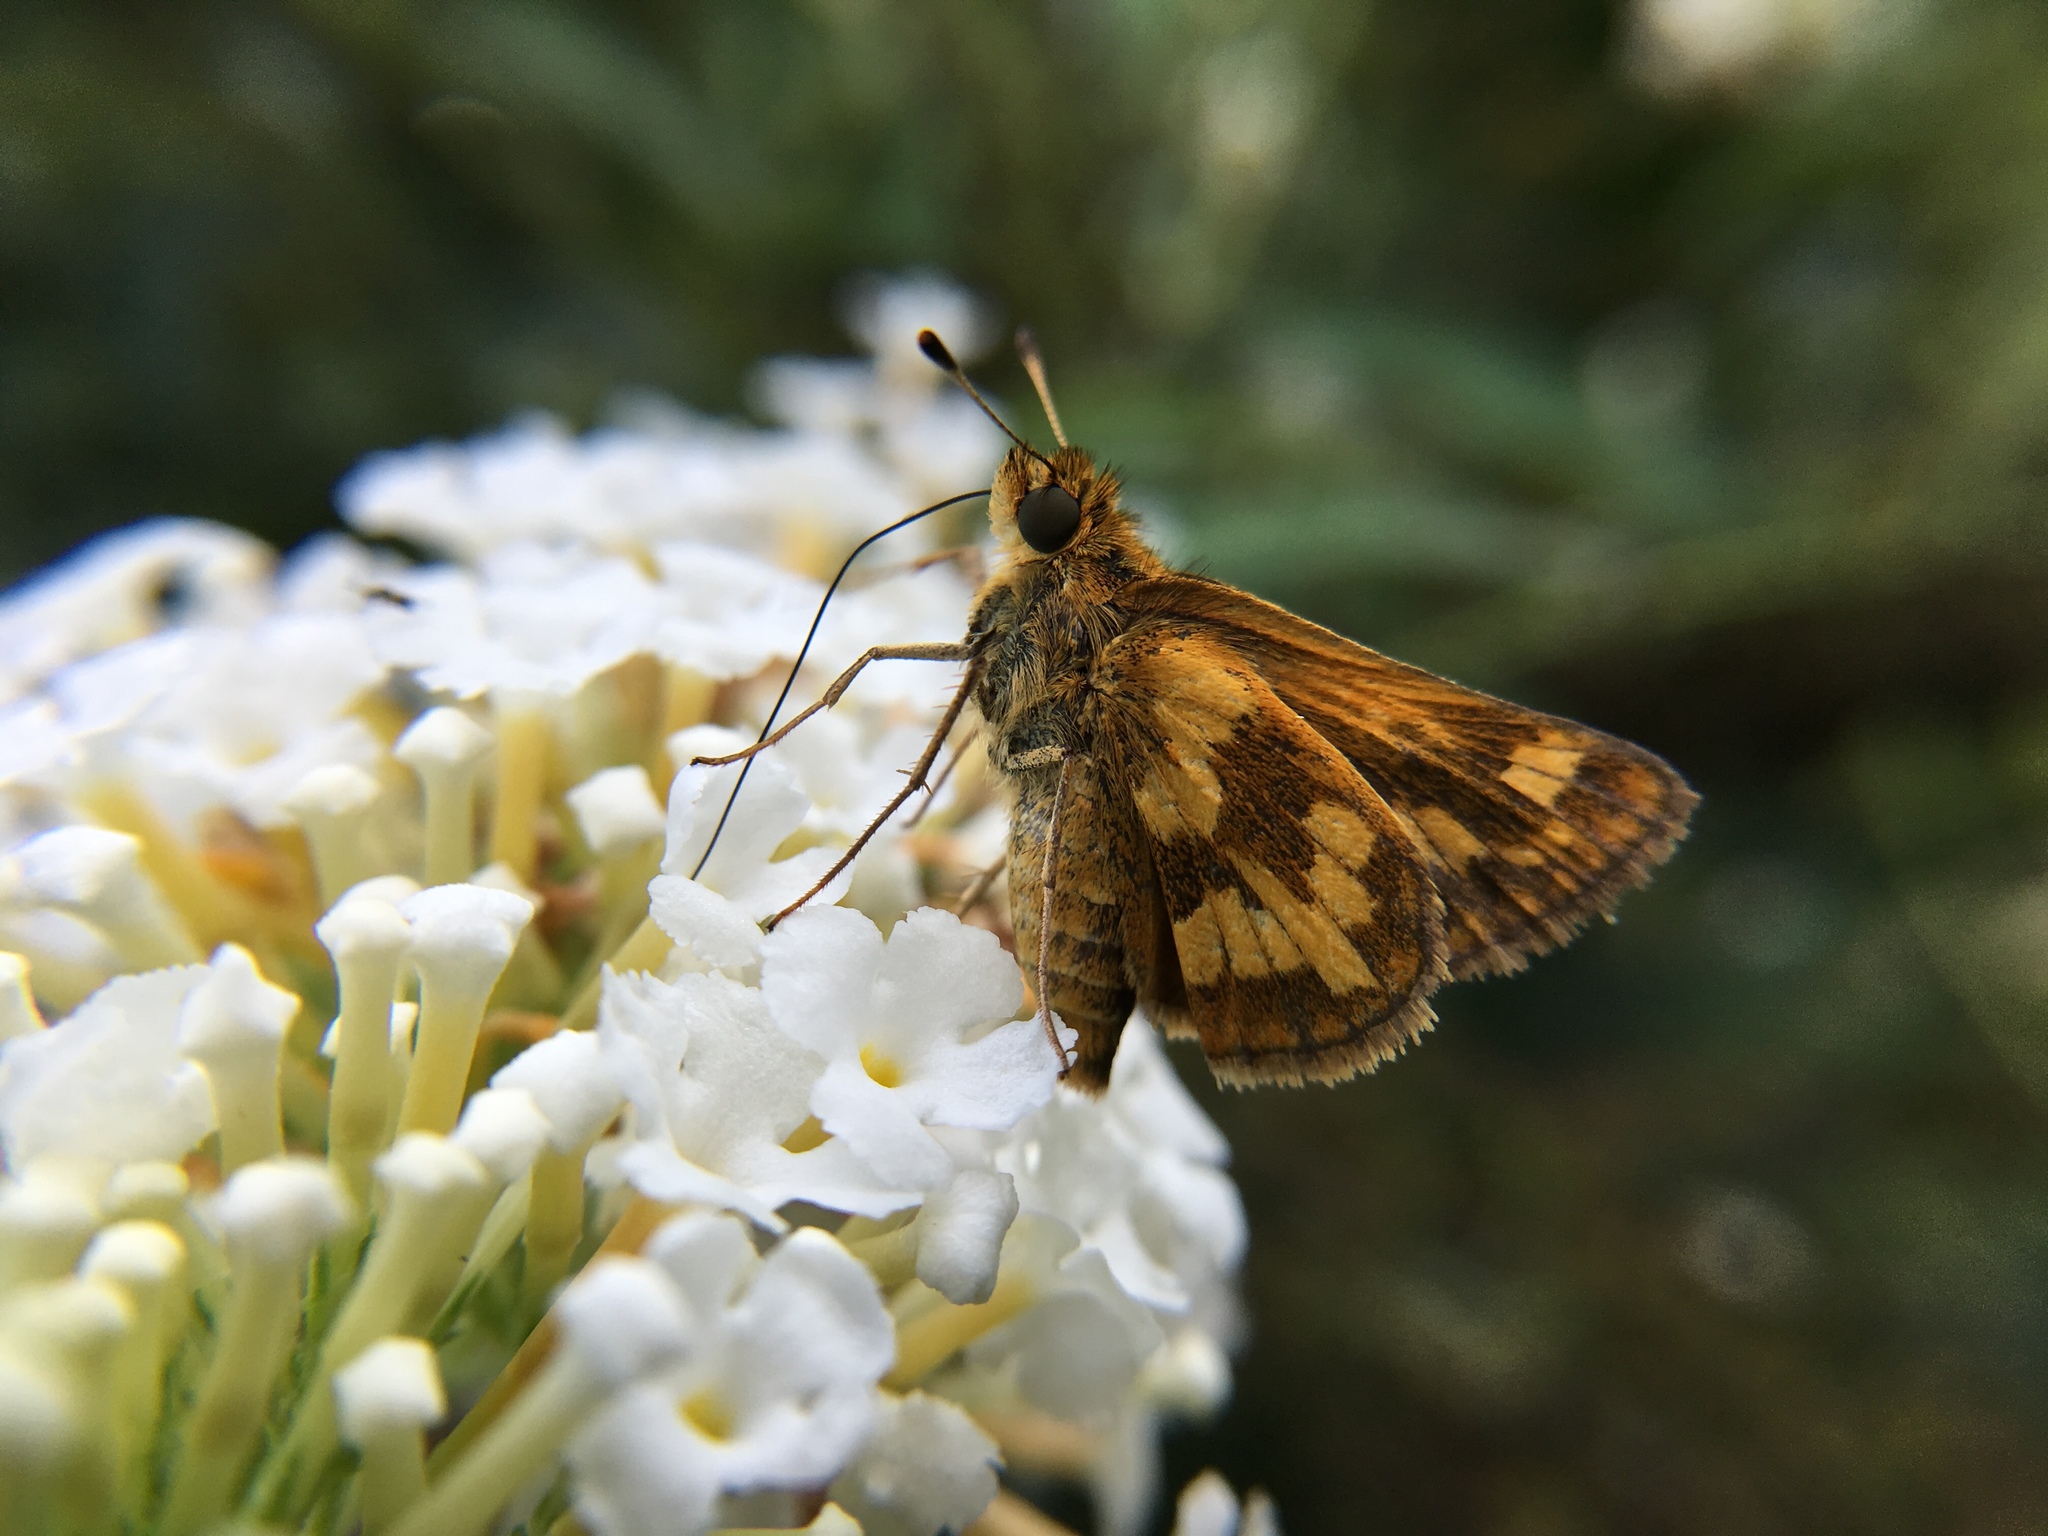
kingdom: Animalia
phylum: Arthropoda
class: Insecta
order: Lepidoptera
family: Hesperiidae
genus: Polites
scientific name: Polites coras
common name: Peck's skipper
